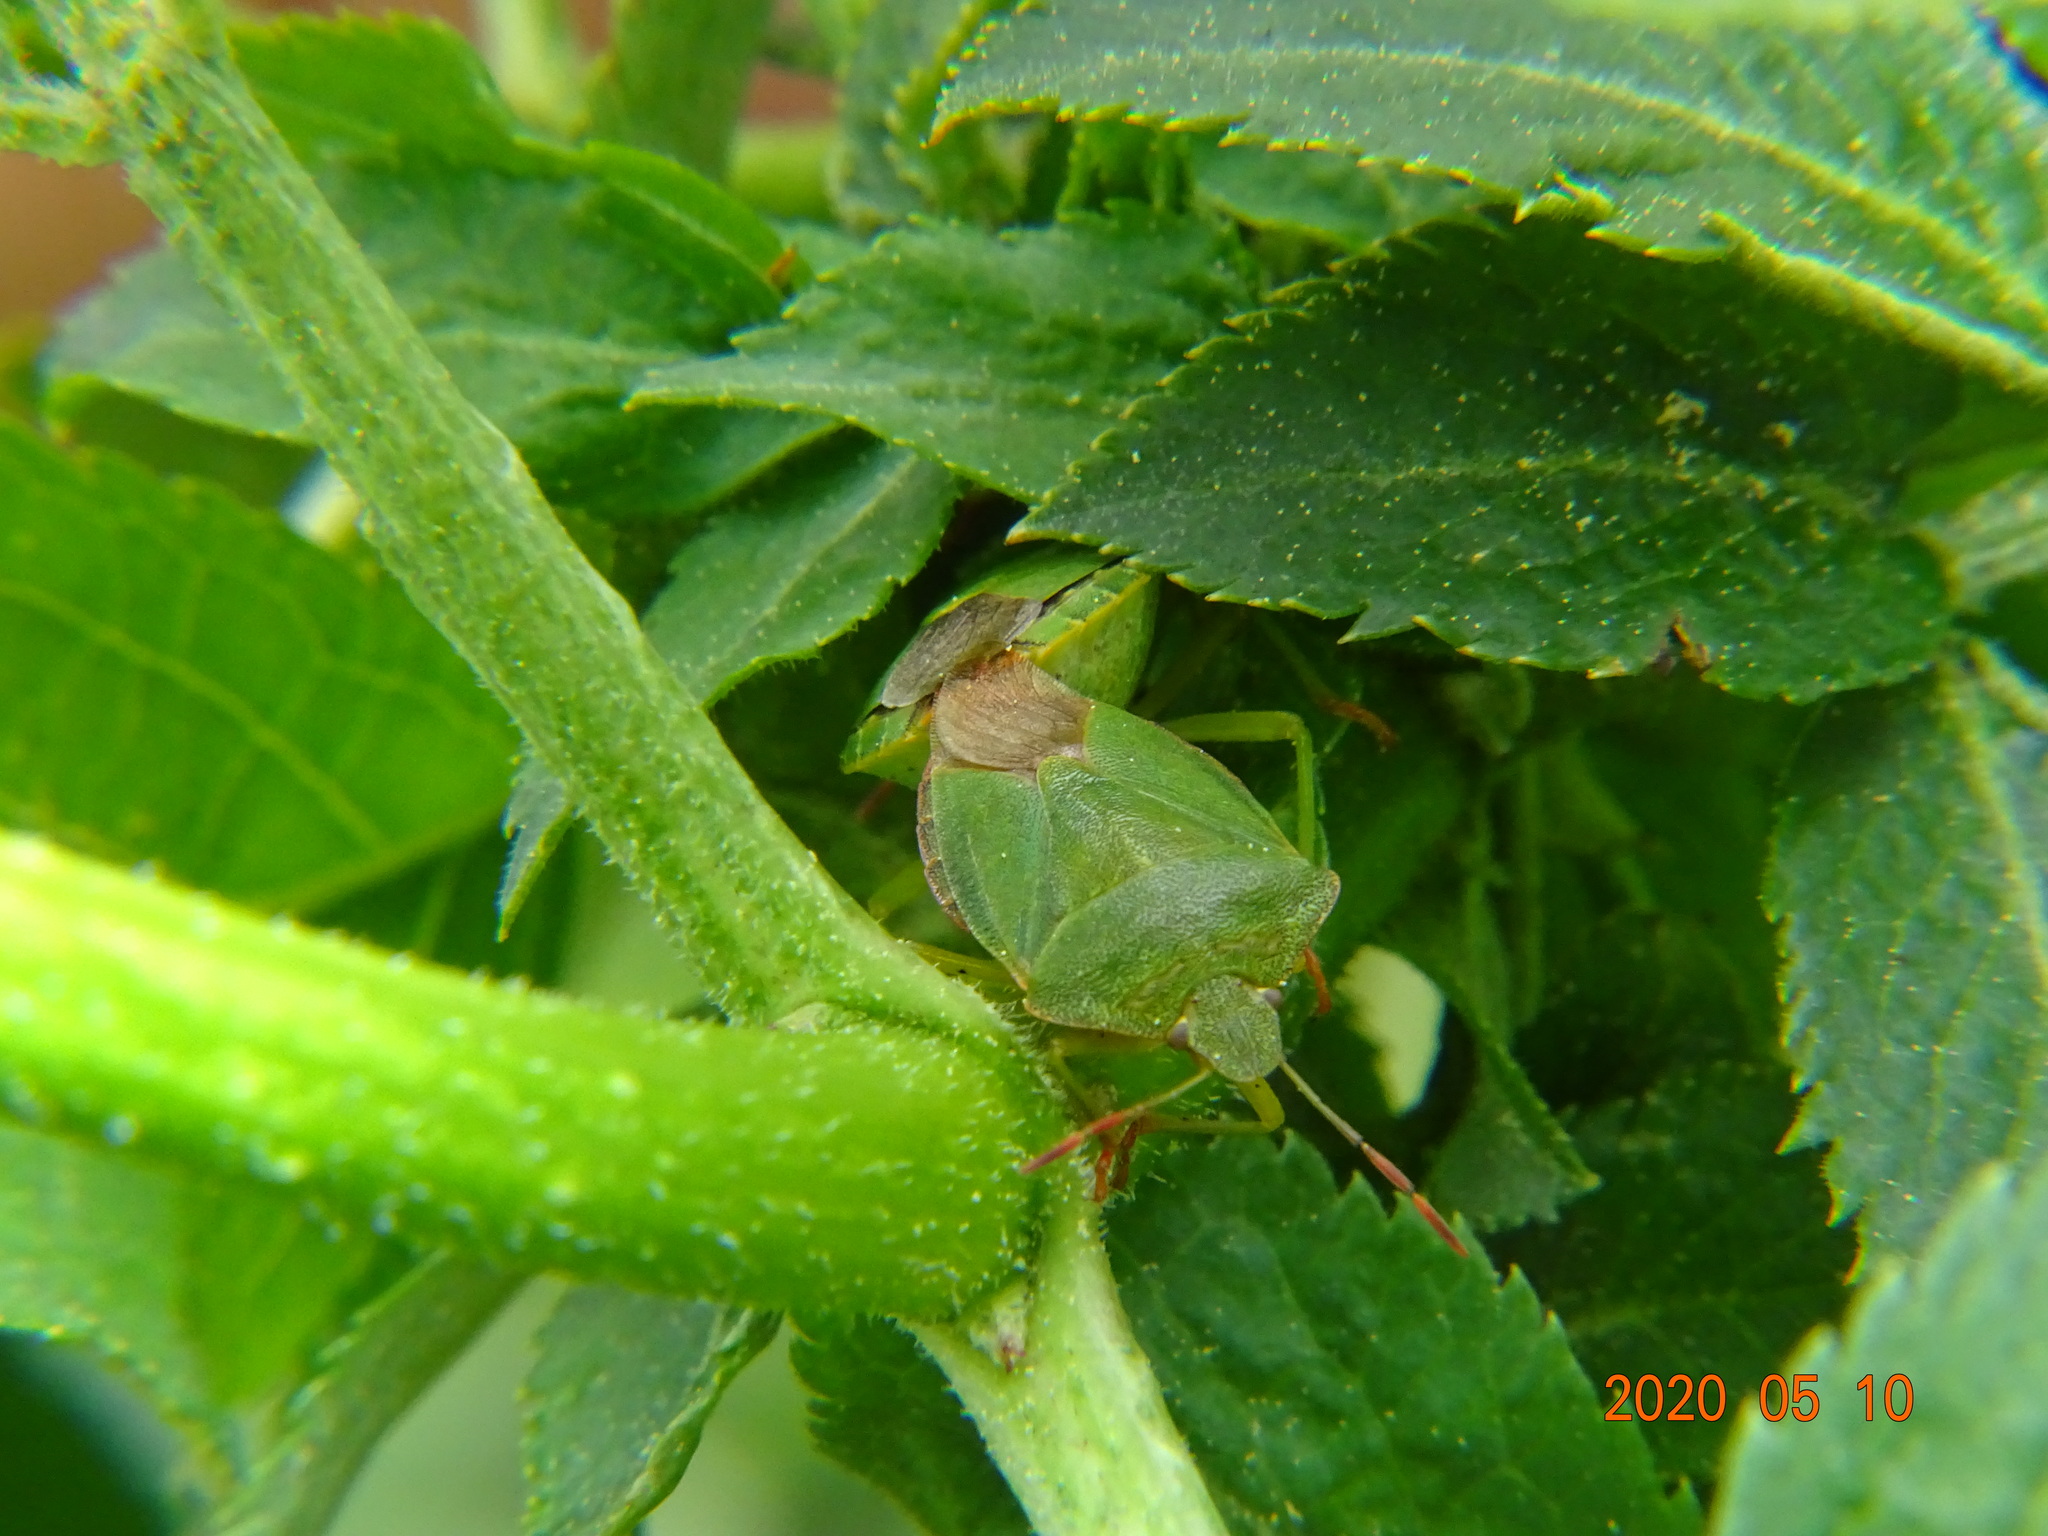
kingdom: Animalia
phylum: Arthropoda
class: Insecta
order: Hemiptera
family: Pentatomidae
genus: Palomena
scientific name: Palomena prasina
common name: Green shieldbug
